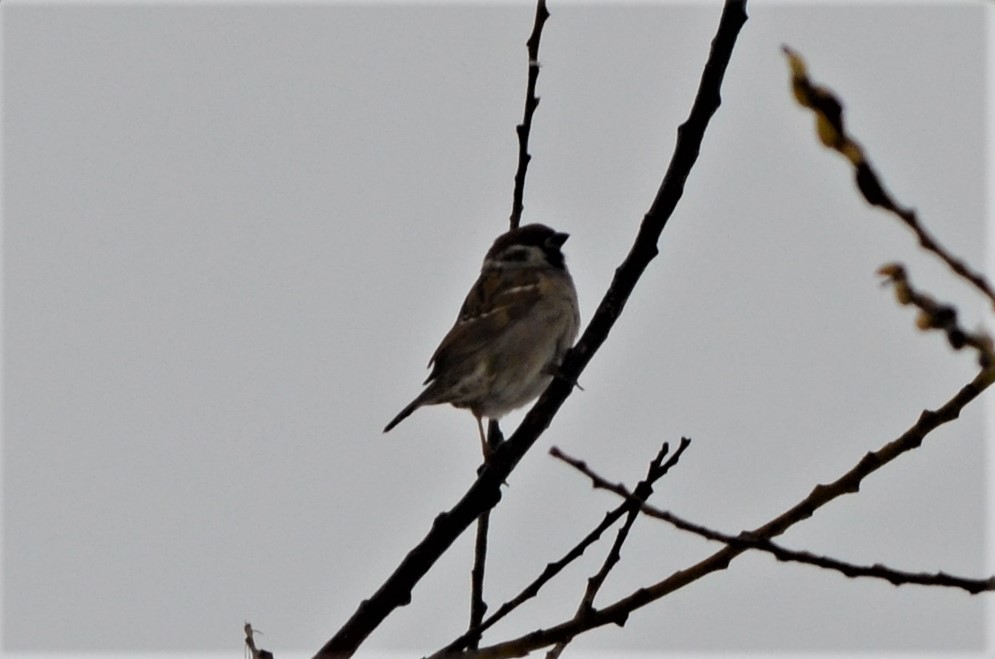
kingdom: Animalia
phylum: Chordata
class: Aves
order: Passeriformes
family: Passeridae
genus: Passer
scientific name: Passer montanus
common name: Eurasian tree sparrow
